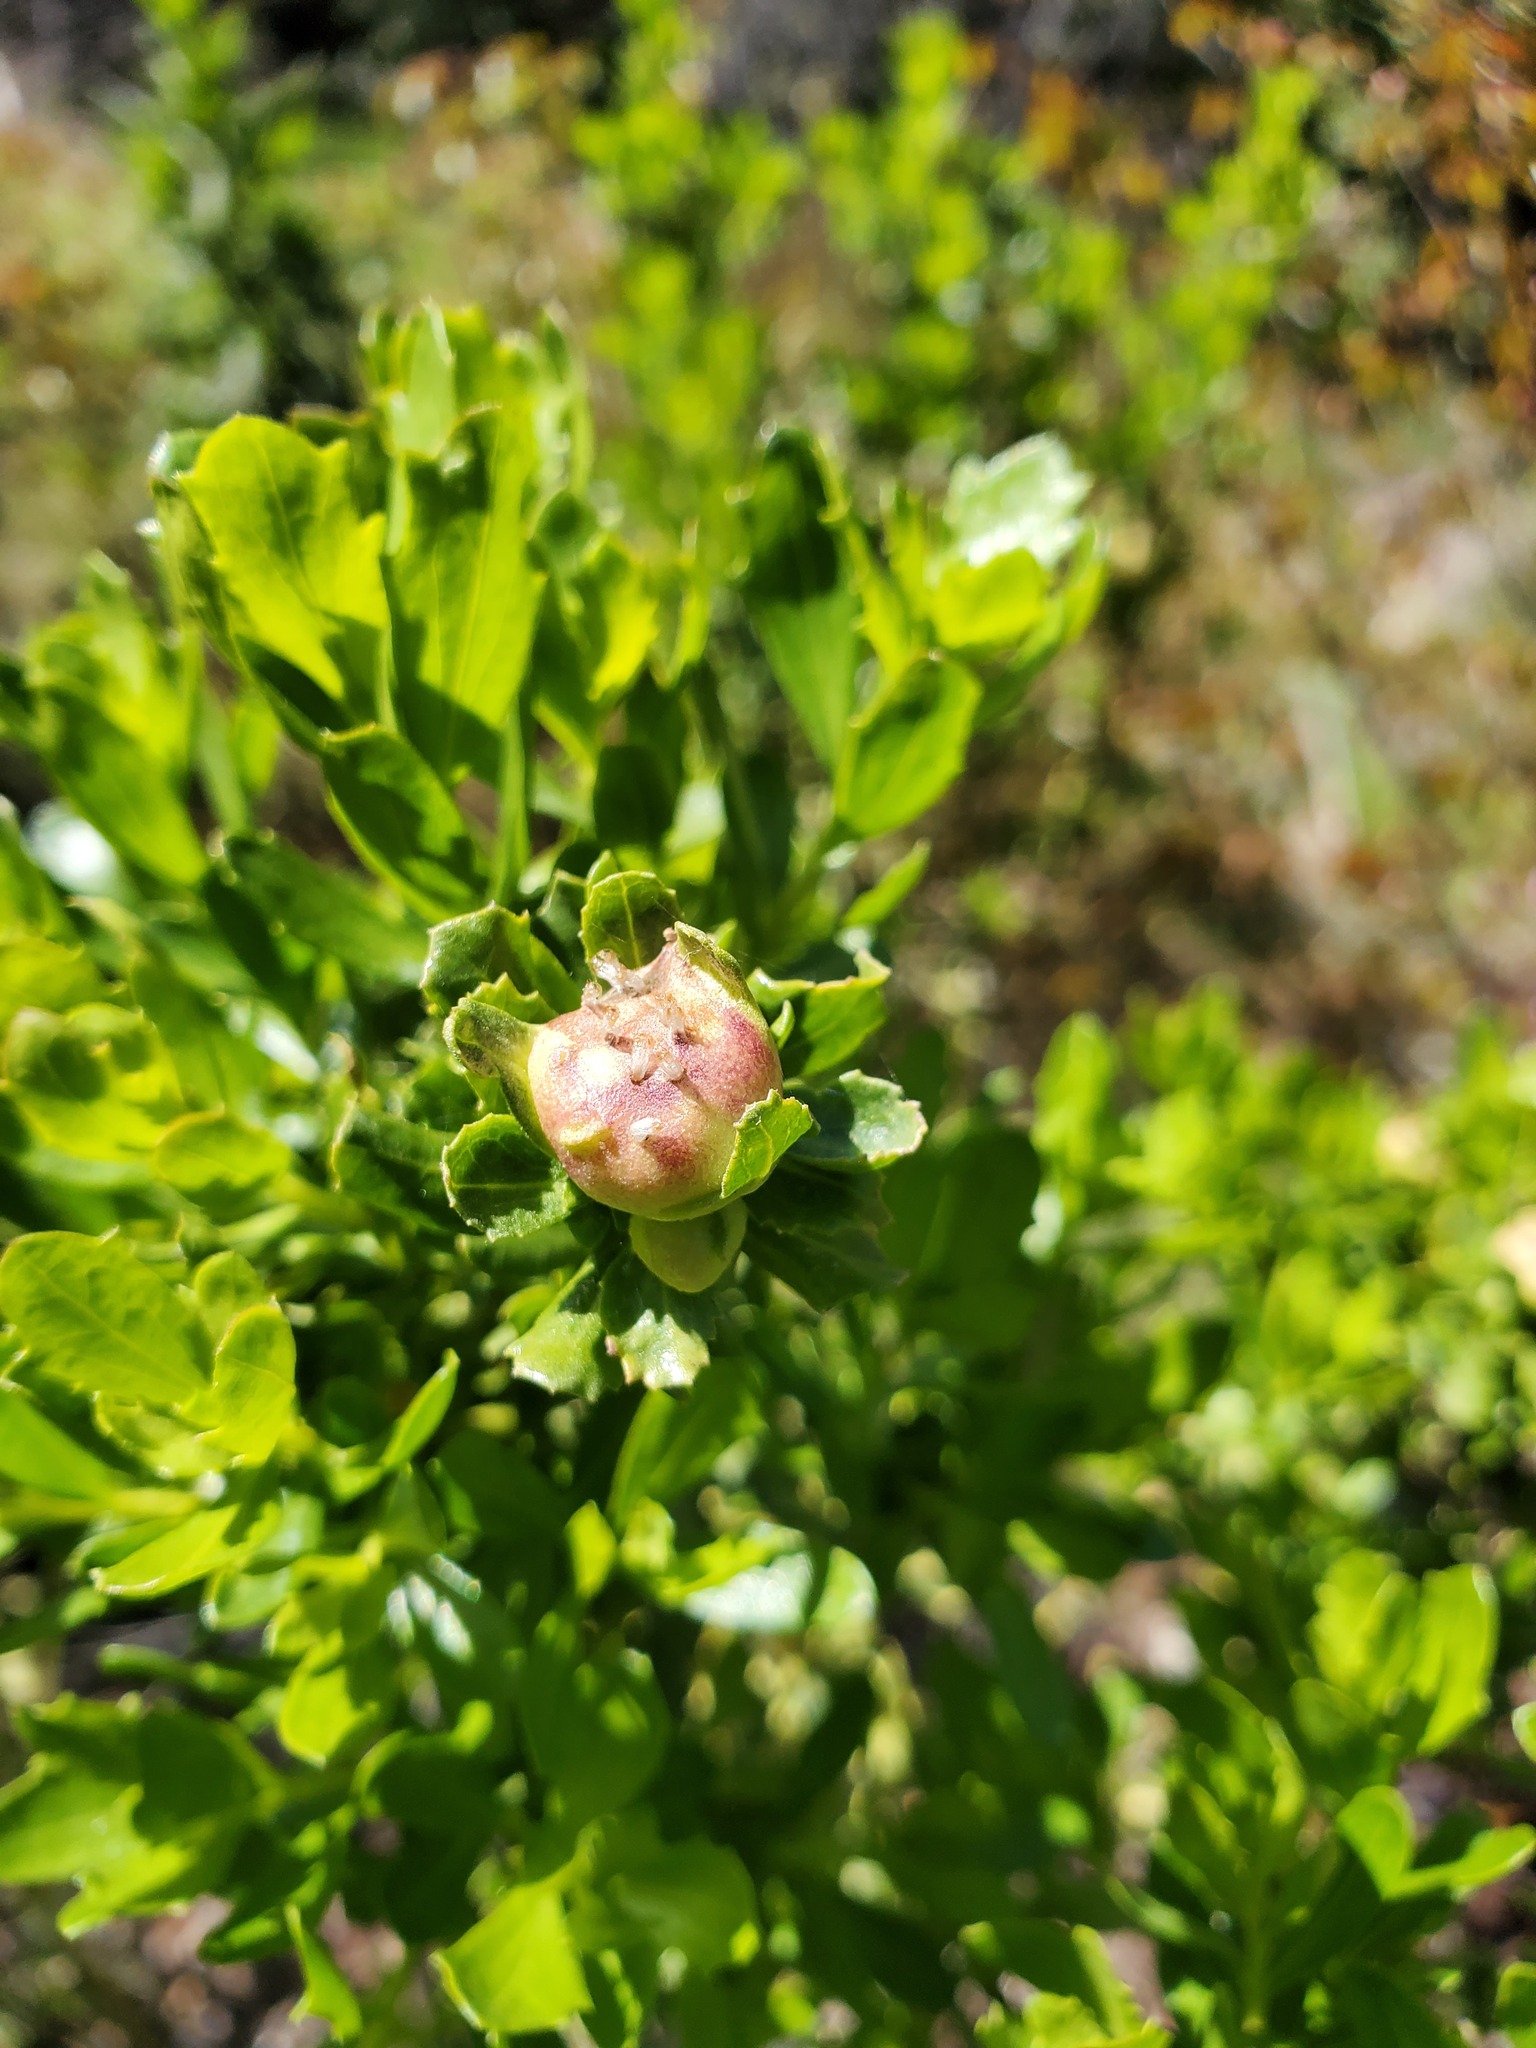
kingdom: Animalia
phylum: Arthropoda
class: Insecta
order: Diptera
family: Cecidomyiidae
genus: Rhopalomyia
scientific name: Rhopalomyia californica
